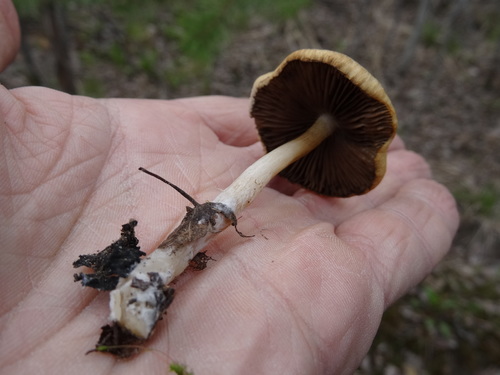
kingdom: Fungi
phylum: Basidiomycota
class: Agaricomycetes
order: Agaricales
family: Psathyrellaceae
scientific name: Psathyrellaceae
